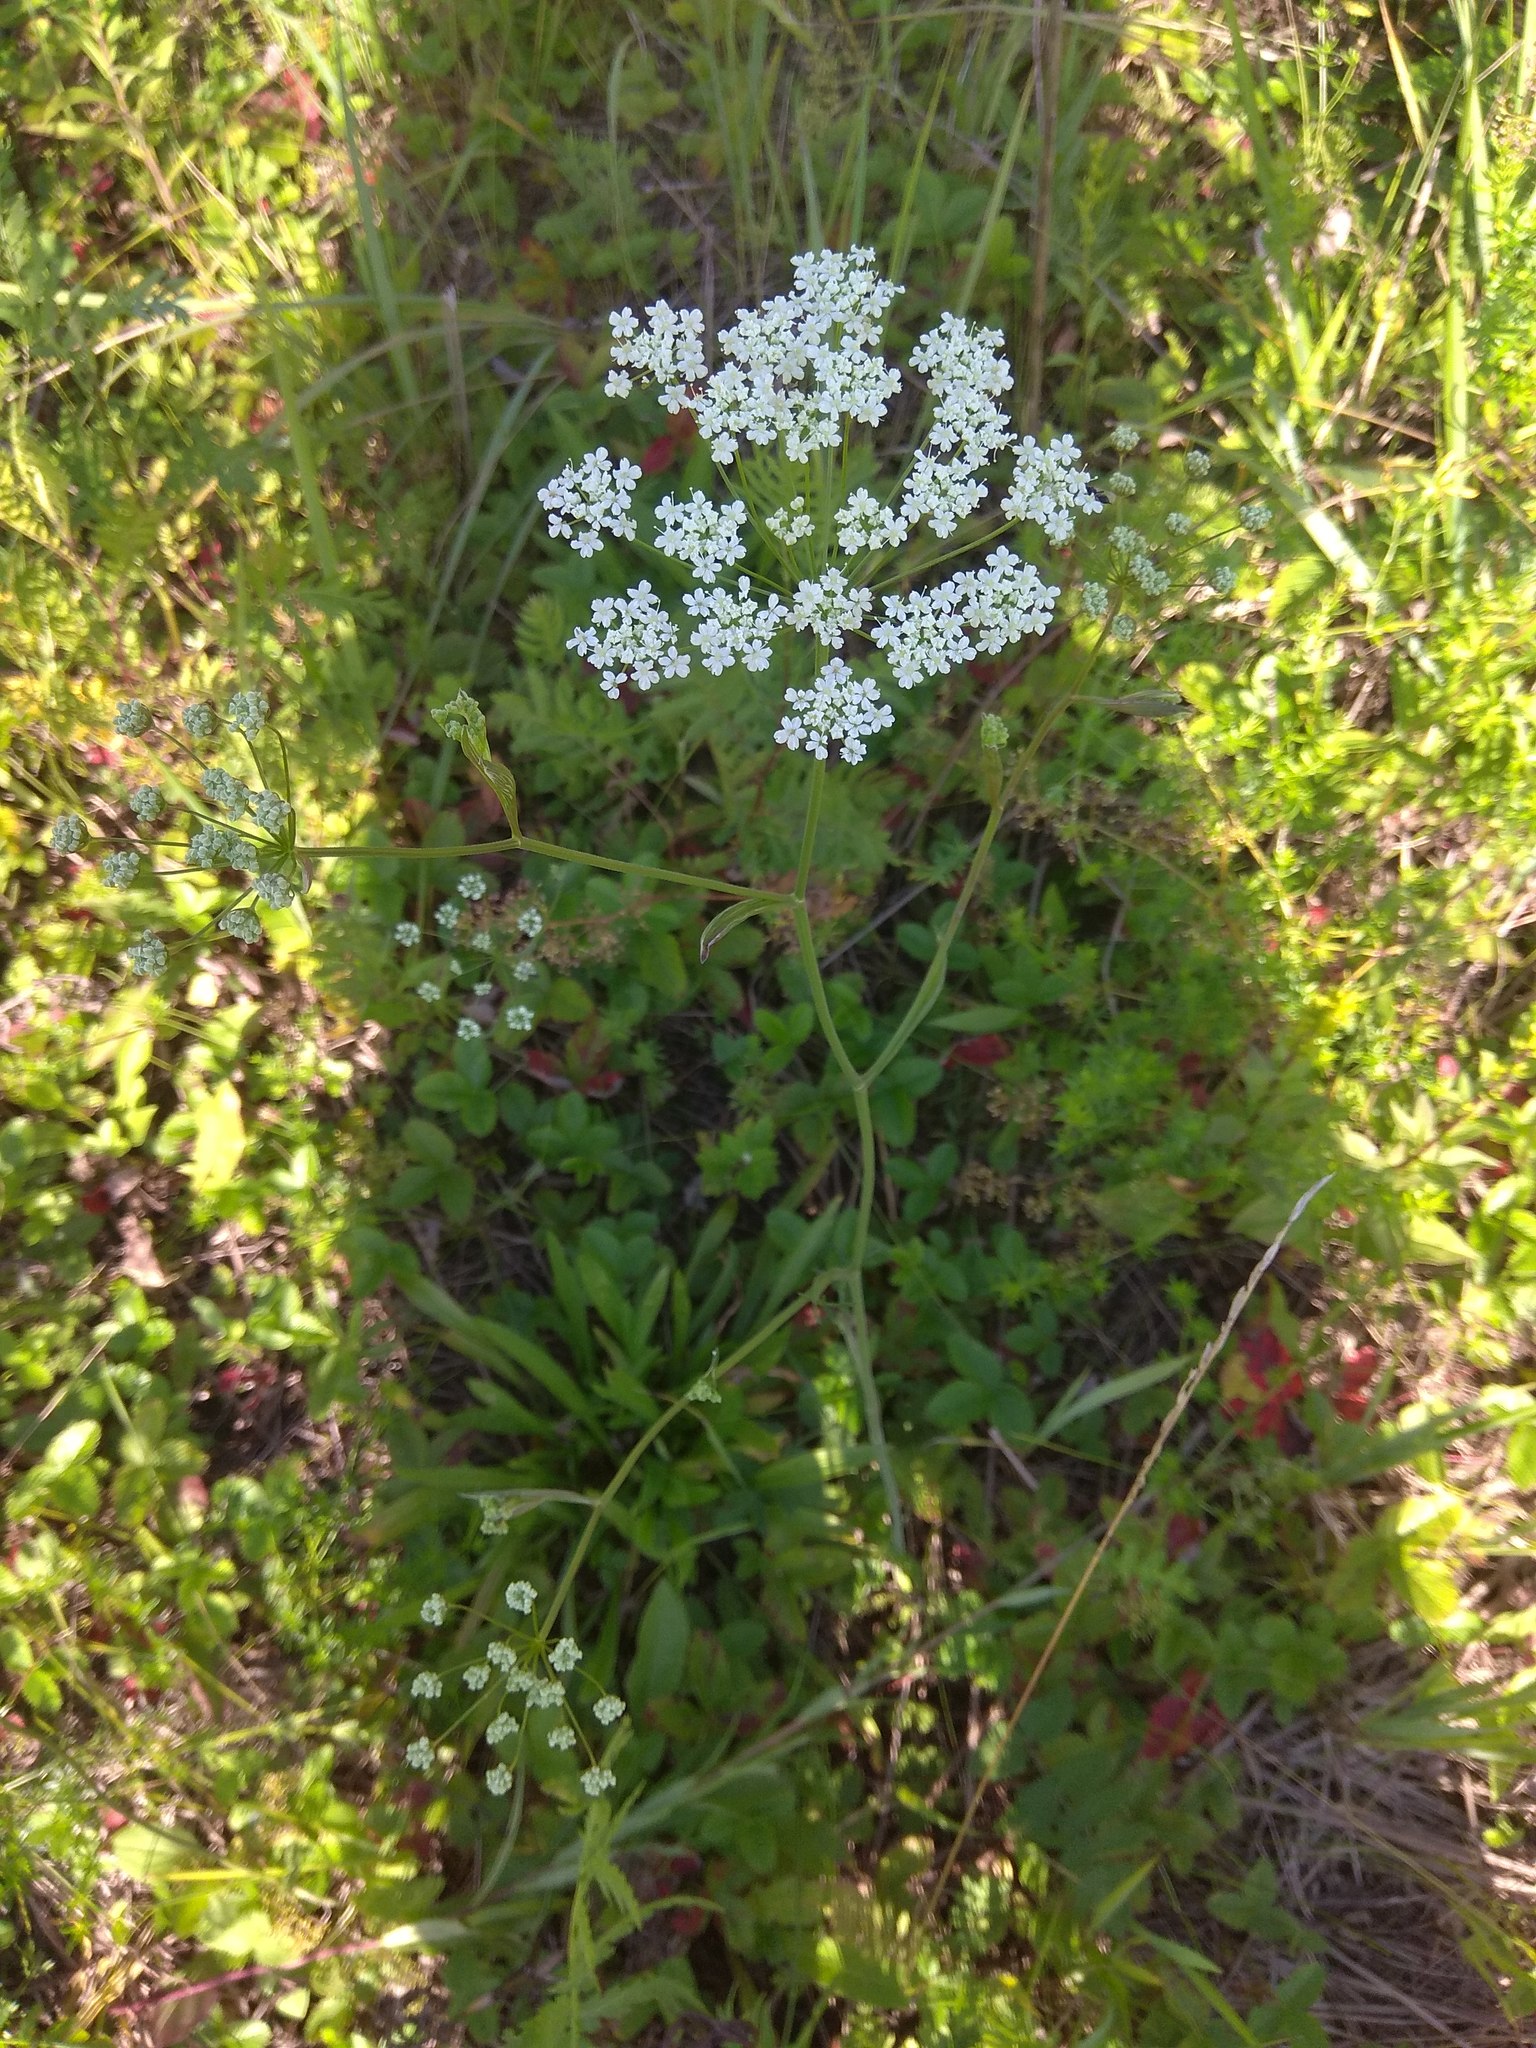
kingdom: Plantae
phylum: Tracheophyta
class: Magnoliopsida
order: Apiales
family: Apiaceae
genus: Pimpinella
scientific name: Pimpinella saxifraga
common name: Burnet-saxifrage
